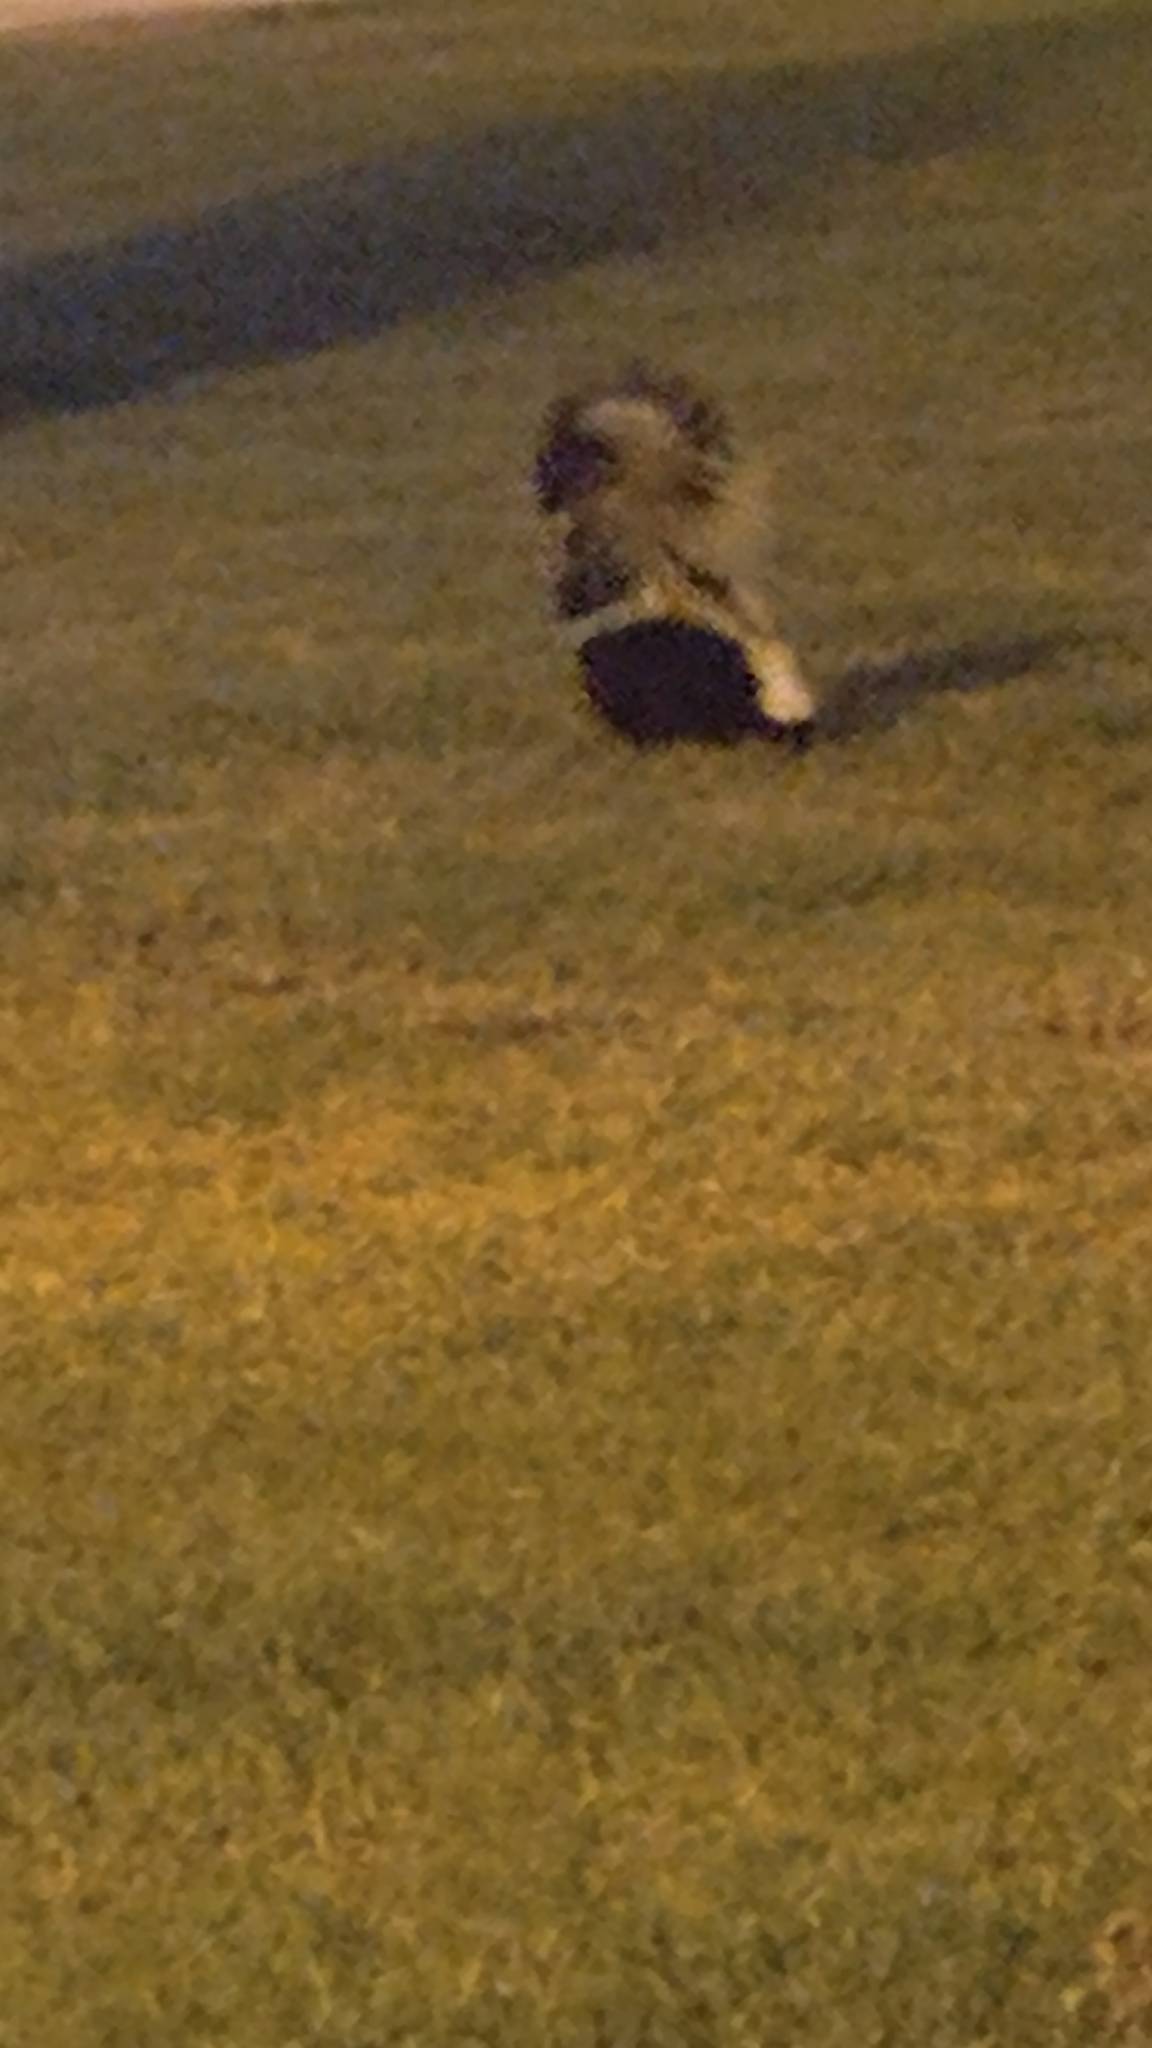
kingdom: Animalia
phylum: Chordata
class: Mammalia
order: Carnivora
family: Mephitidae
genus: Mephitis
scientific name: Mephitis mephitis
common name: Striped skunk
